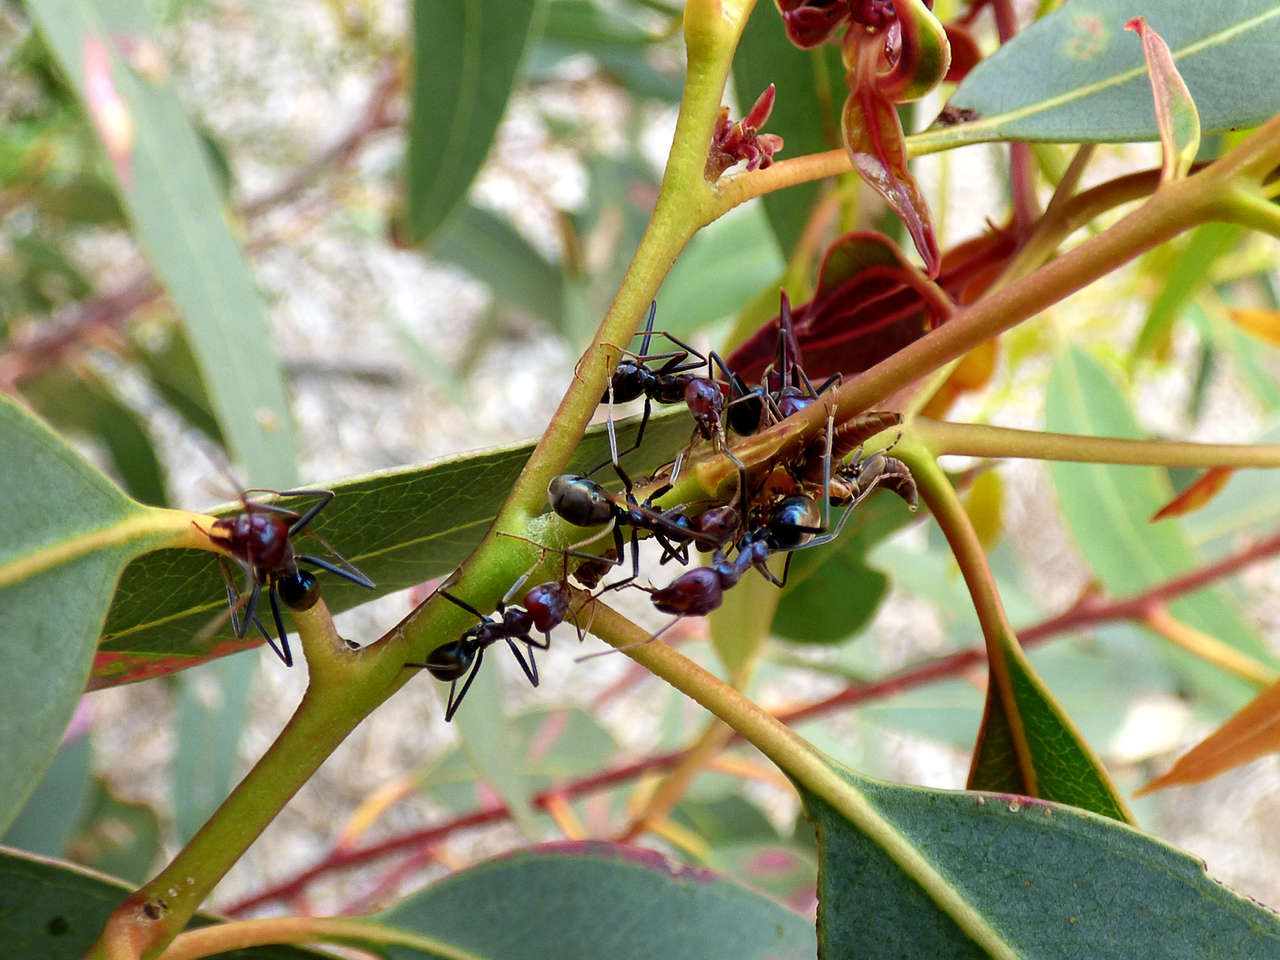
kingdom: Animalia
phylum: Arthropoda
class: Insecta
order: Hymenoptera
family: Formicidae
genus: Iridomyrmex
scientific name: Iridomyrmex purpureus
